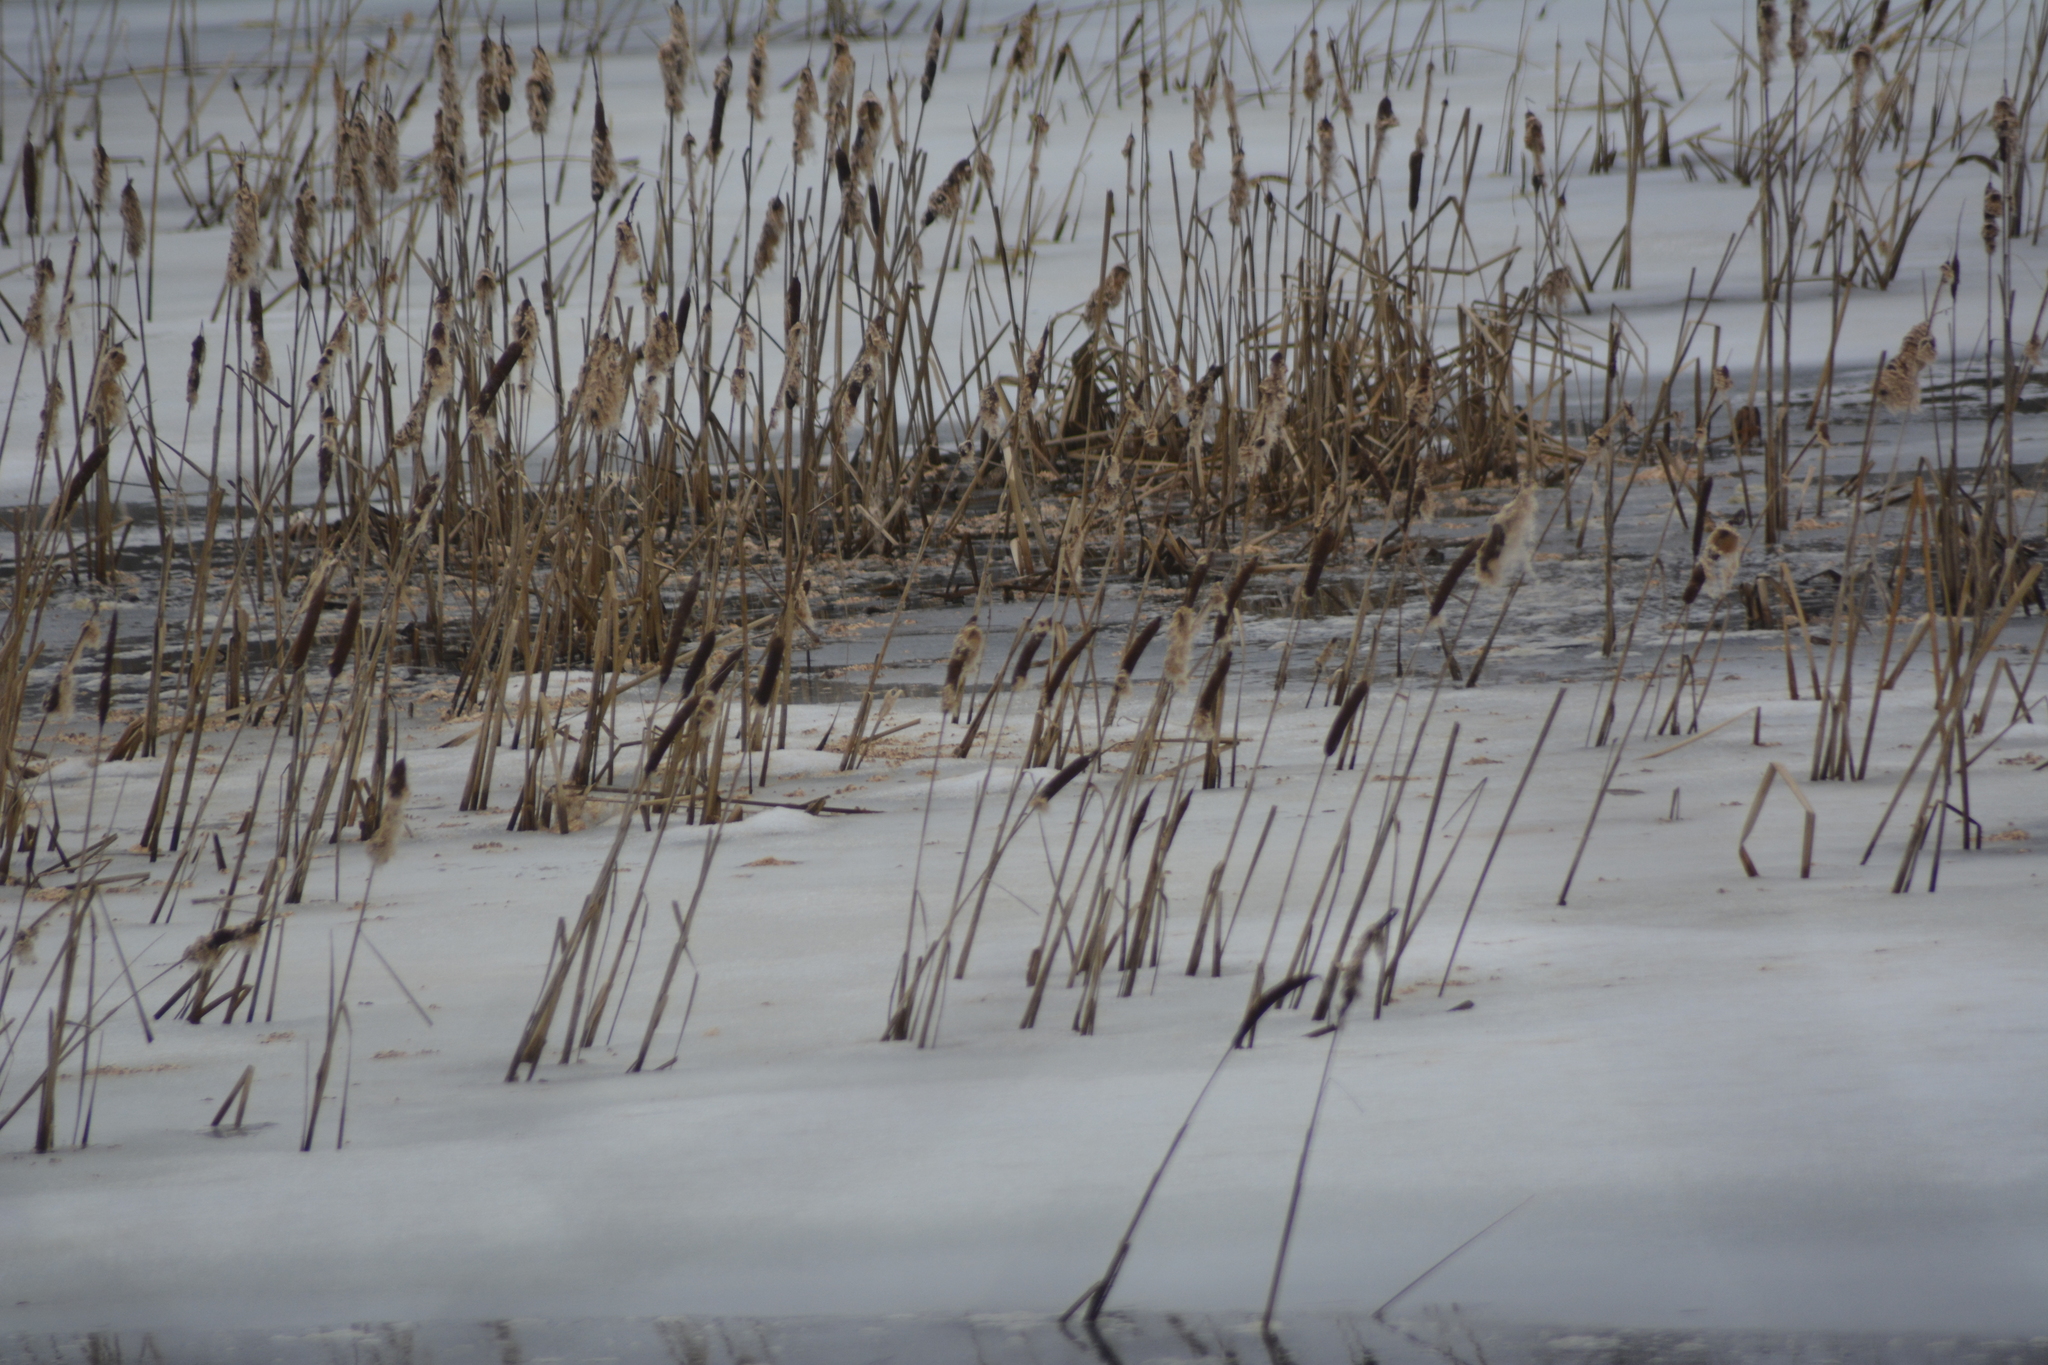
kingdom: Plantae
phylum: Tracheophyta
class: Liliopsida
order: Poales
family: Typhaceae
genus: Typha
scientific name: Typha latifolia
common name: Broadleaf cattail
